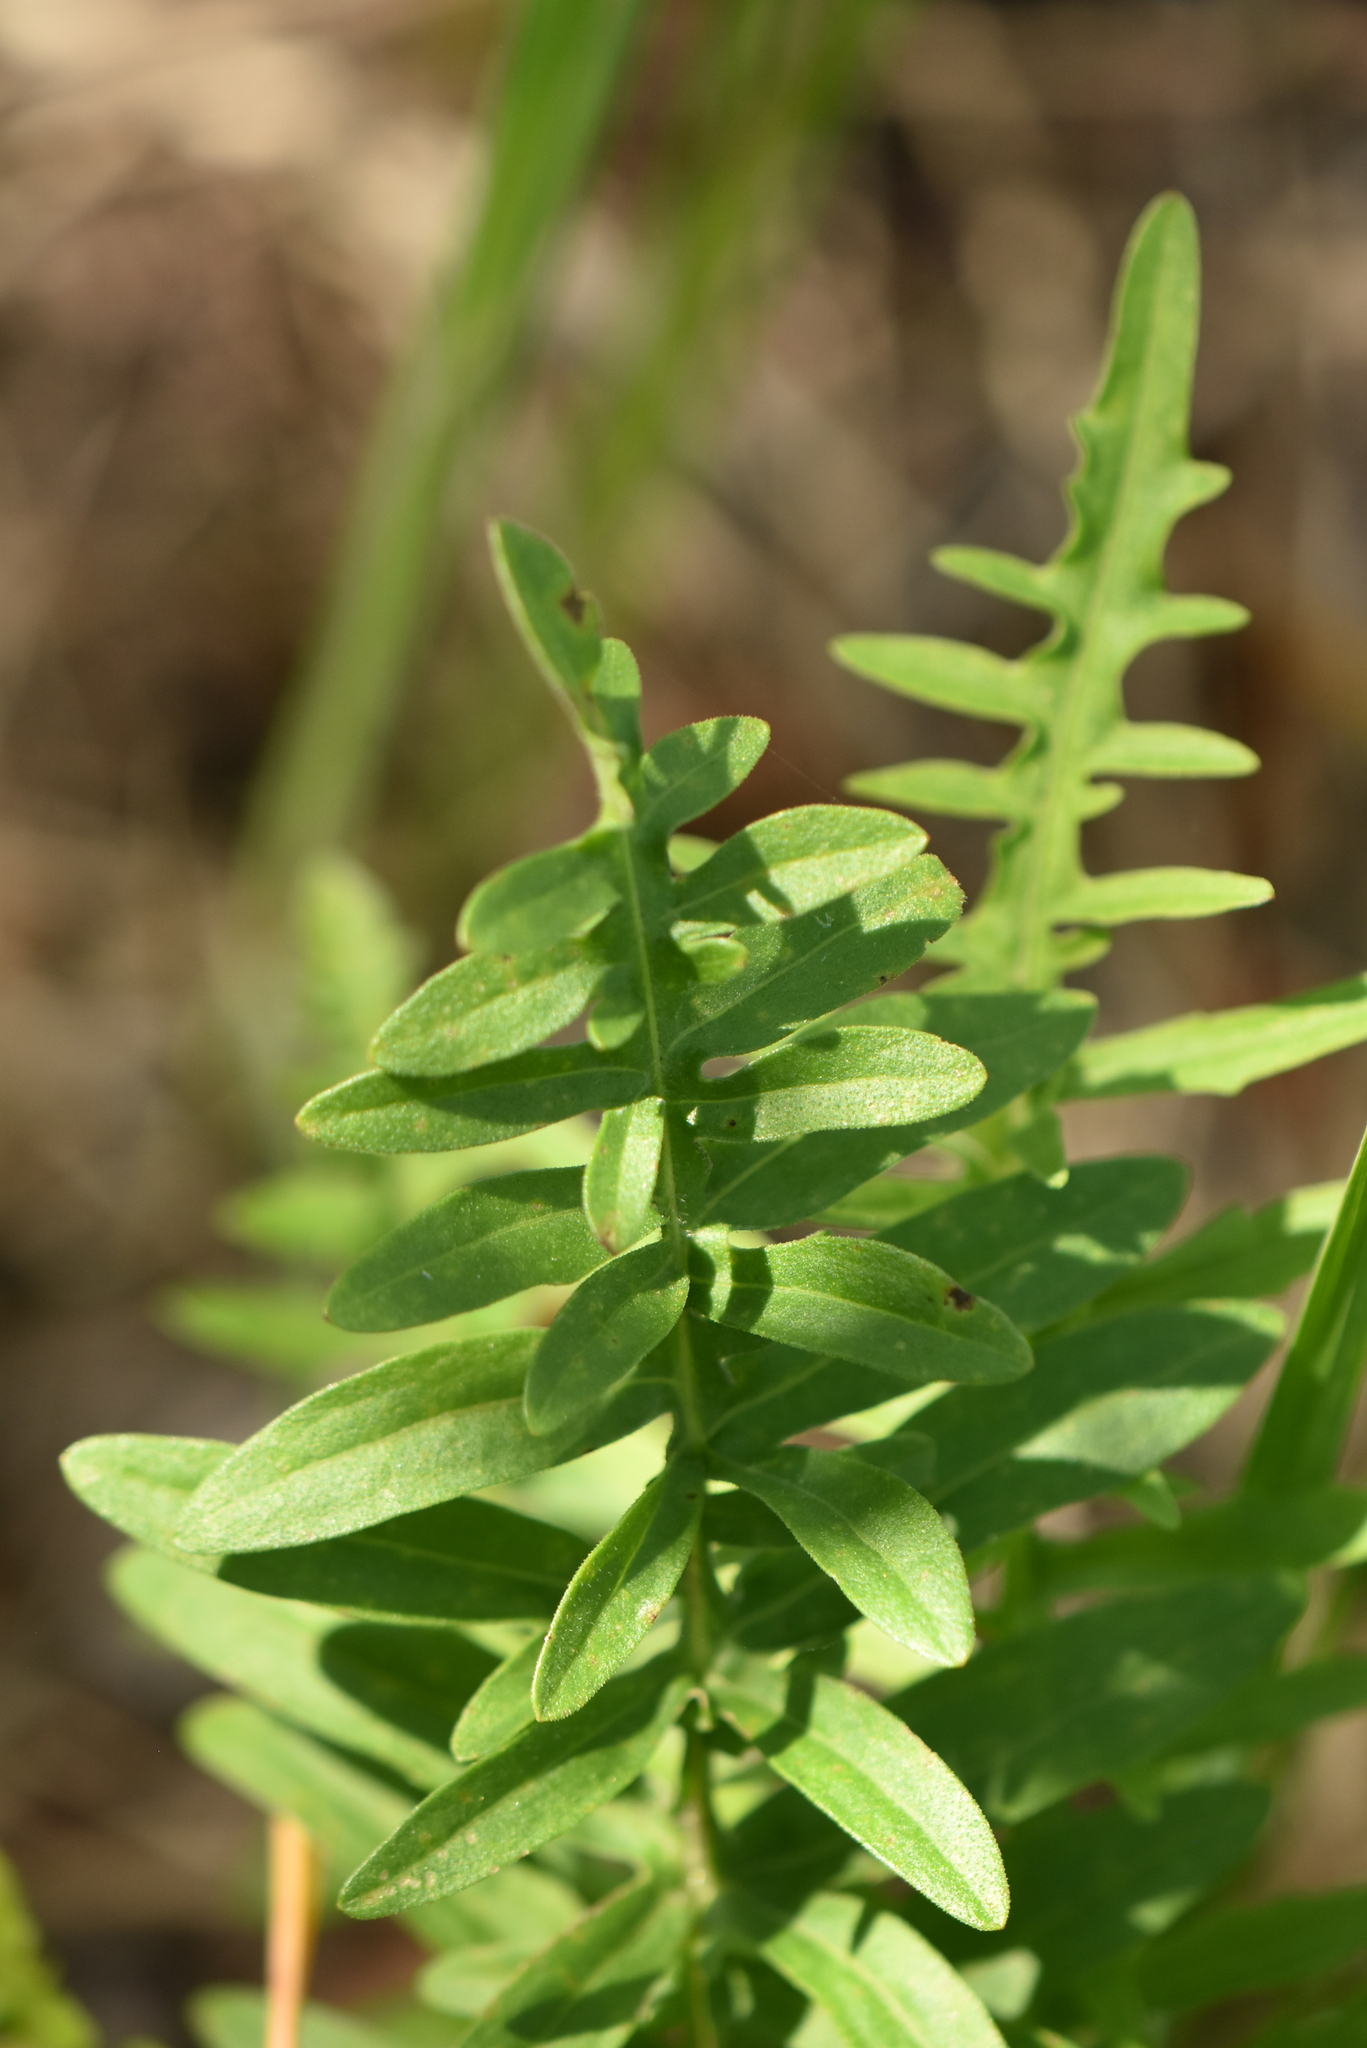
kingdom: Plantae
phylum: Tracheophyta
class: Magnoliopsida
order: Asterales
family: Asteraceae
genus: Centaurea
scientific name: Centaurea scabiosa
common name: Greater knapweed
